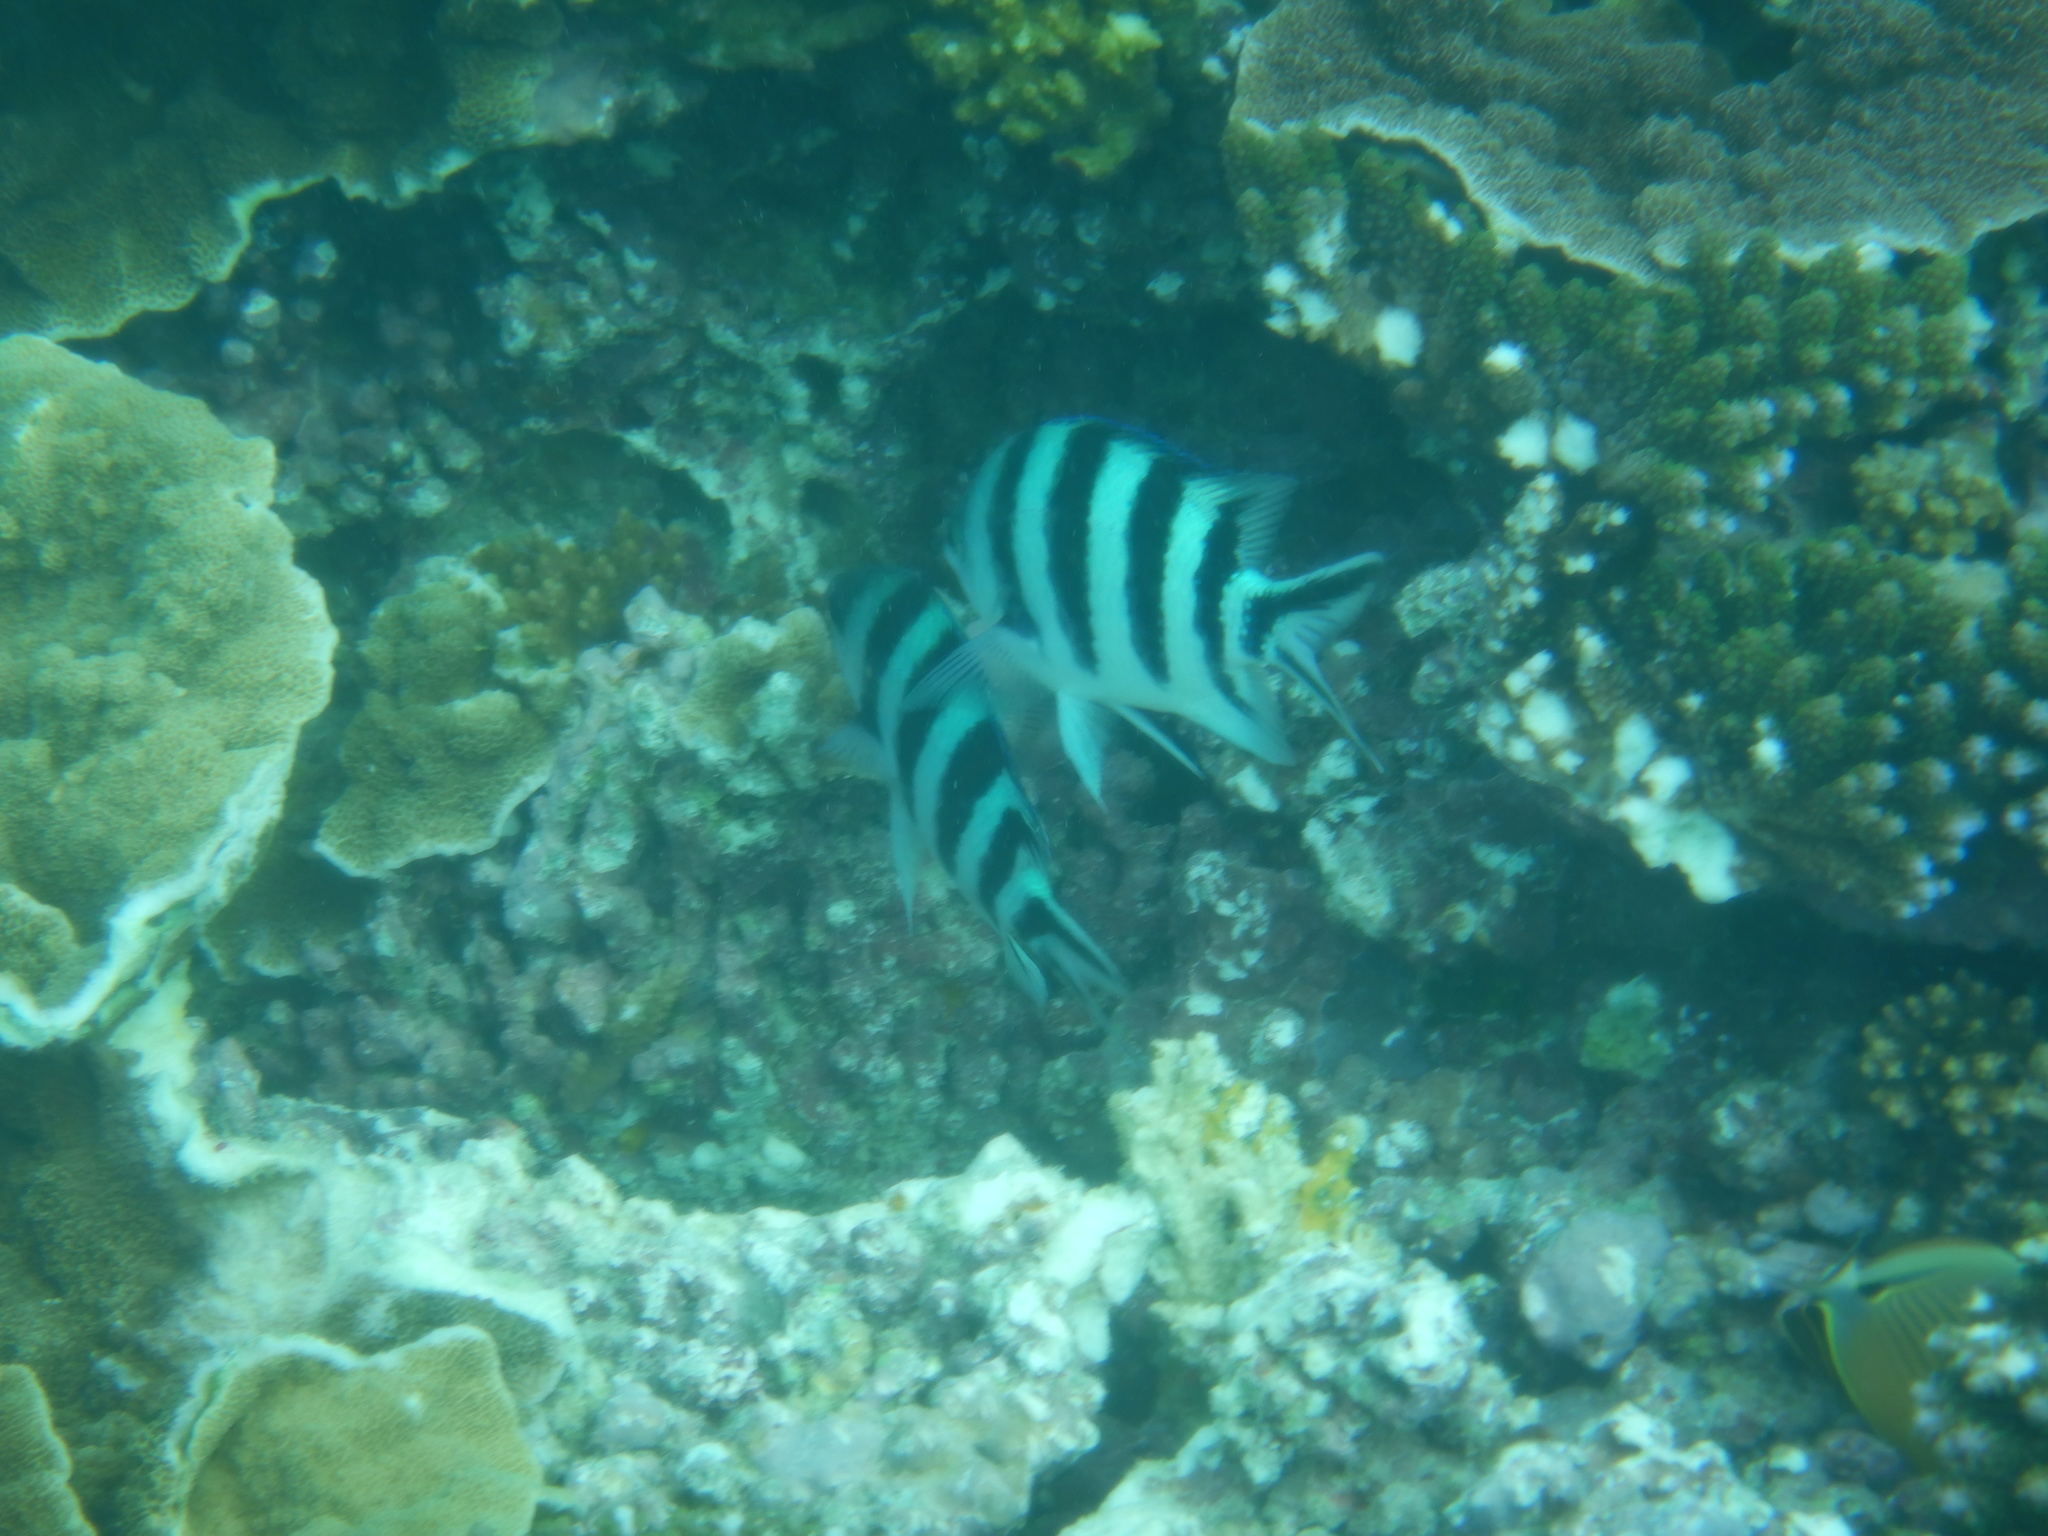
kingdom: Animalia
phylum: Chordata
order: Perciformes
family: Pomacentridae
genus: Abudefduf
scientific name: Abudefduf sexfasciatus
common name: Scissortail sergeant
